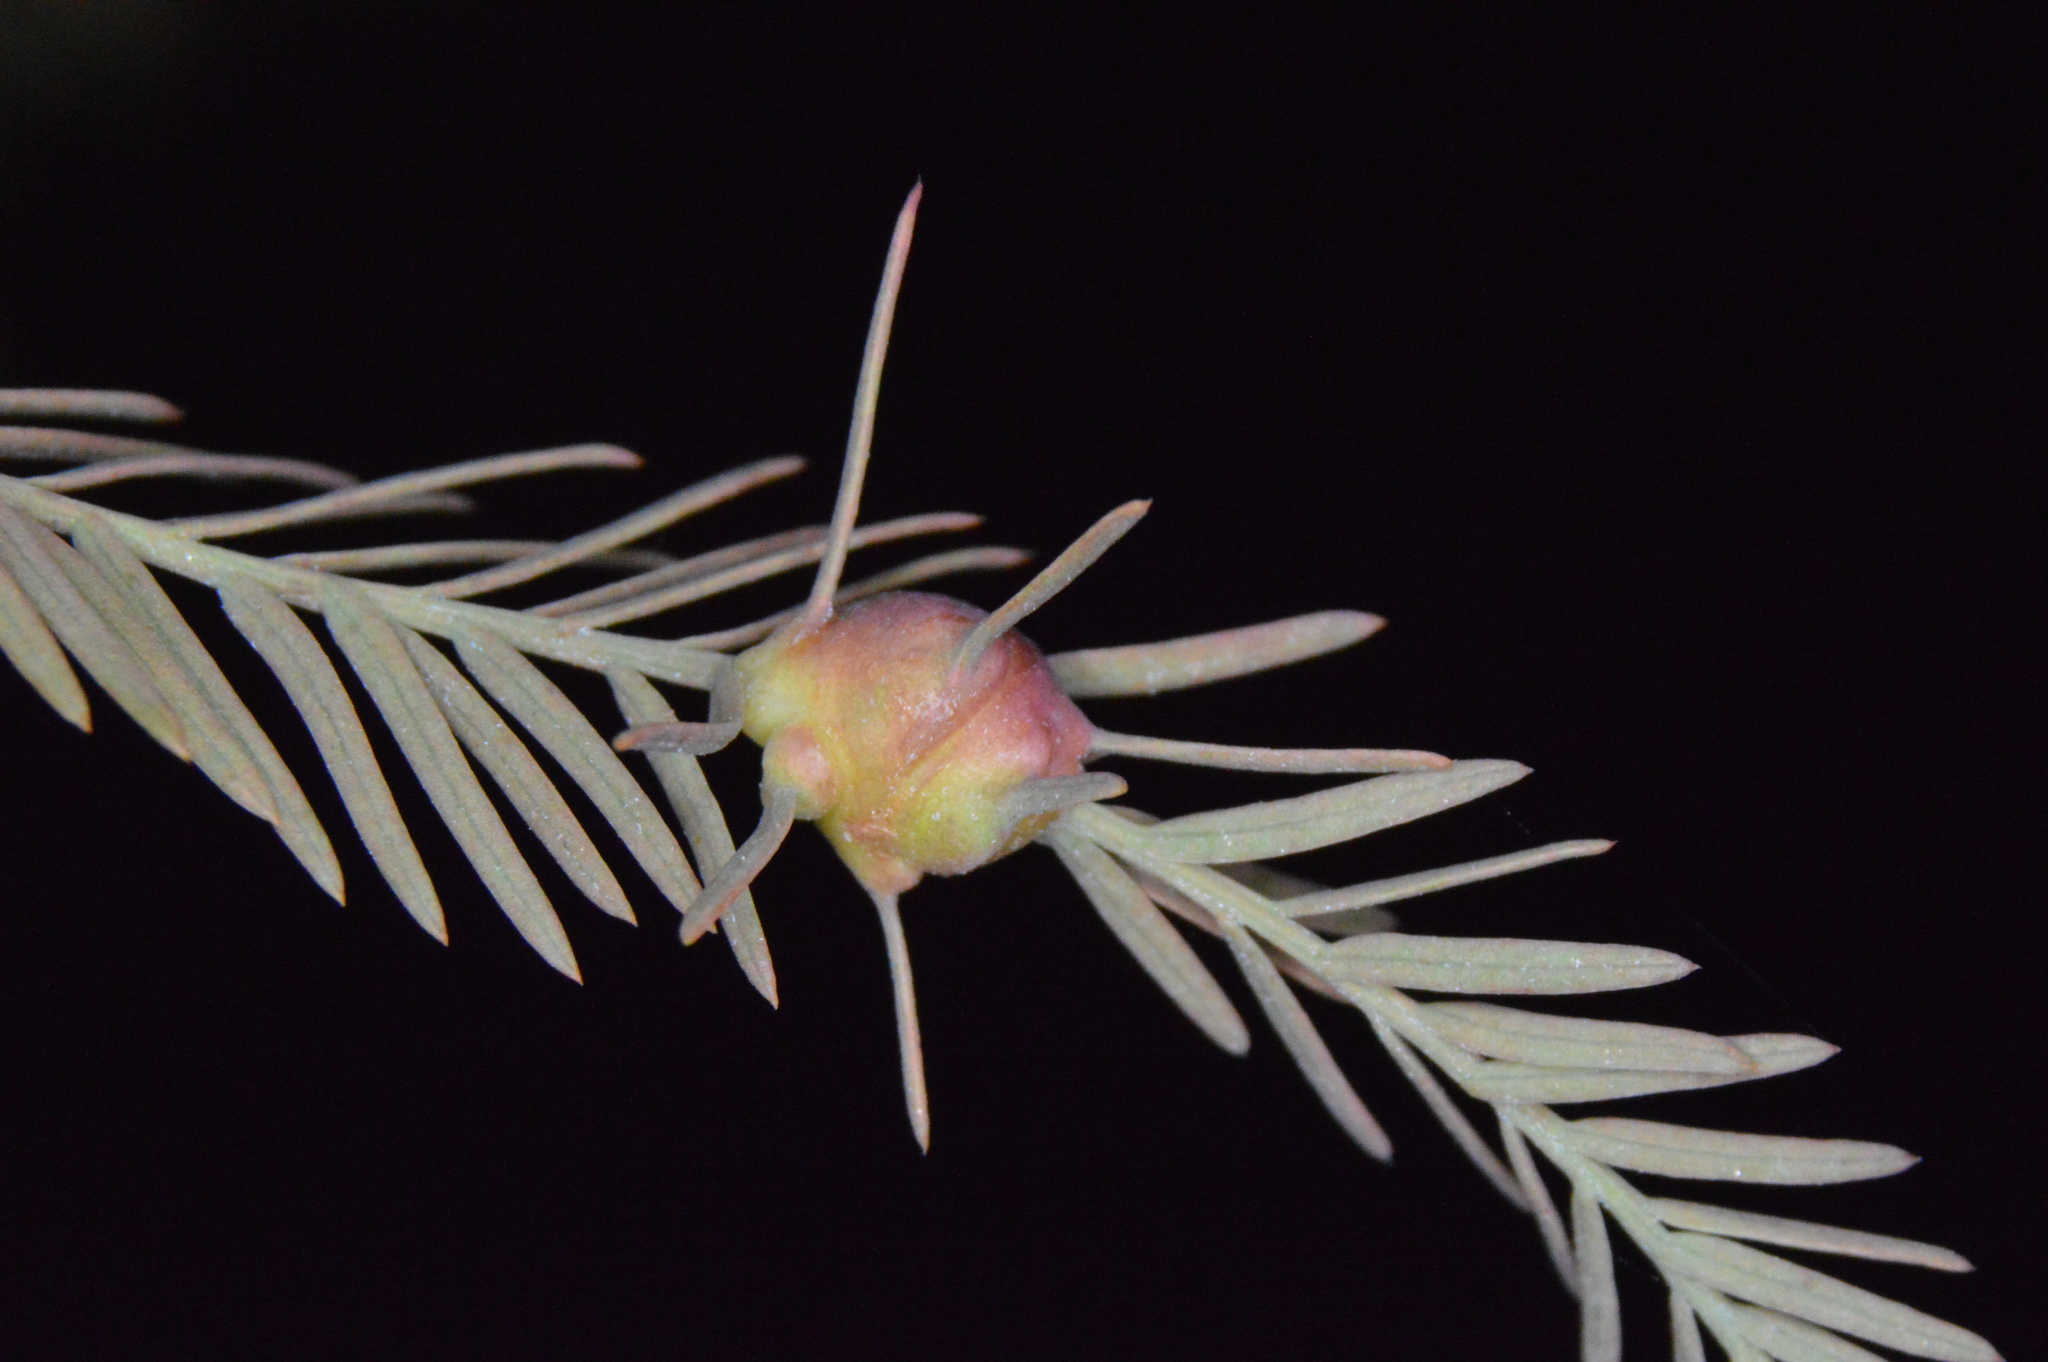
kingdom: Animalia
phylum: Arthropoda
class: Insecta
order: Diptera
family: Cecidomyiidae
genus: Taxodiomyia
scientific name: Taxodiomyia cupressiananassa
